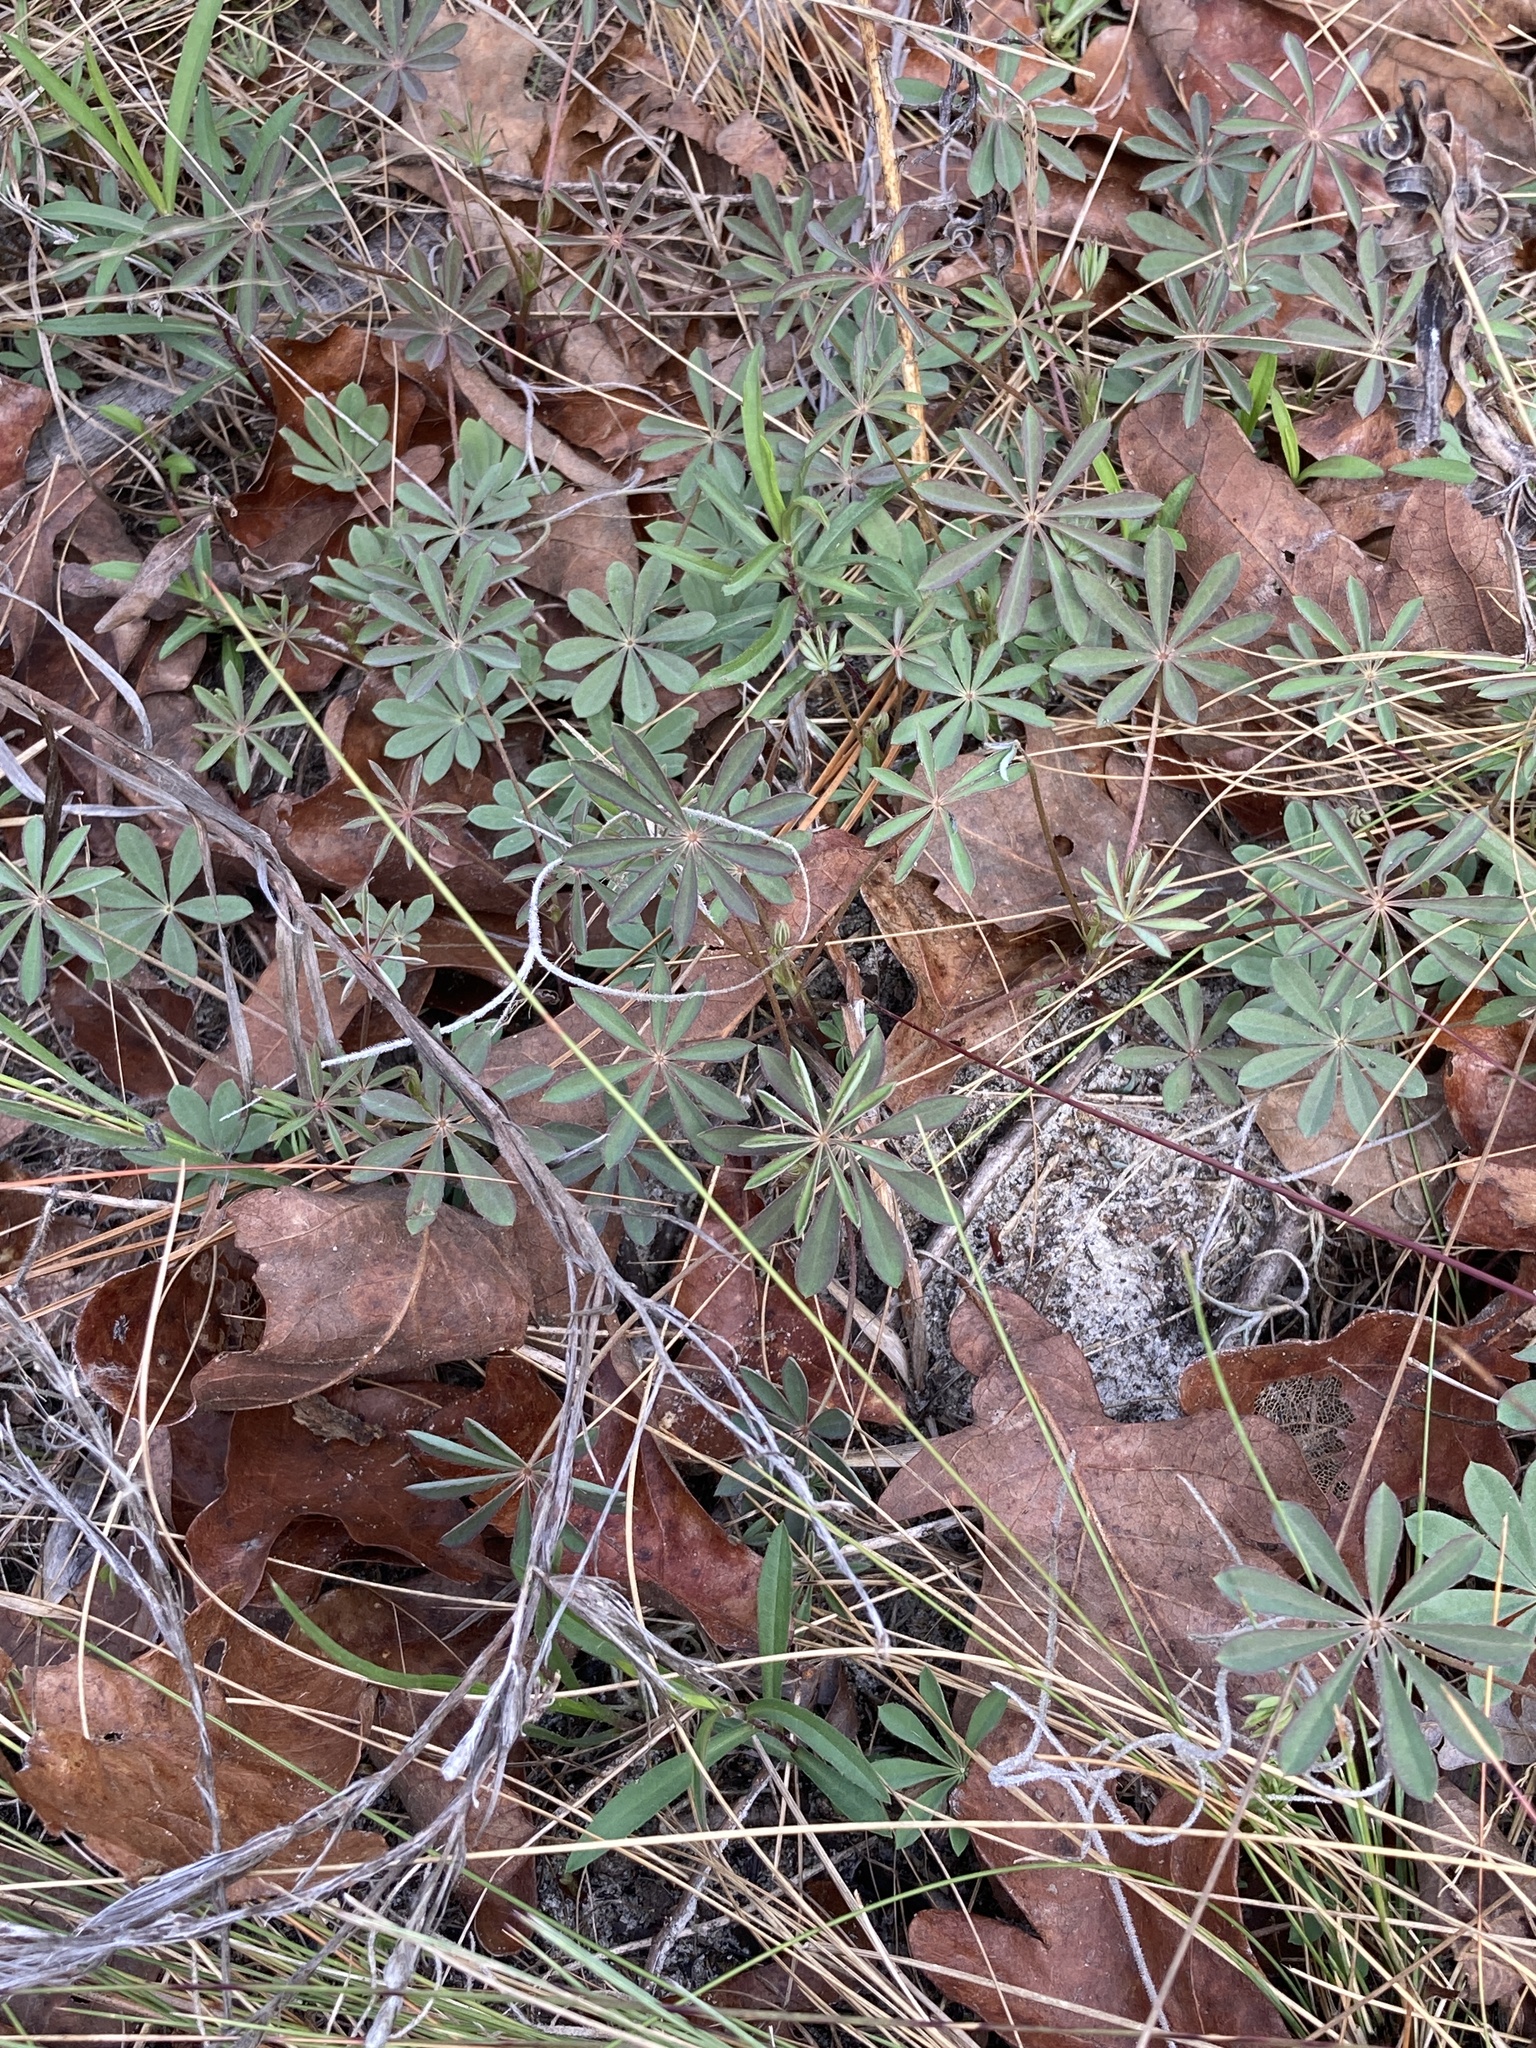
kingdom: Plantae
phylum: Tracheophyta
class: Magnoliopsida
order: Fabales
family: Fabaceae
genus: Lupinus
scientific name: Lupinus perennis
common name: Sundial lupine
